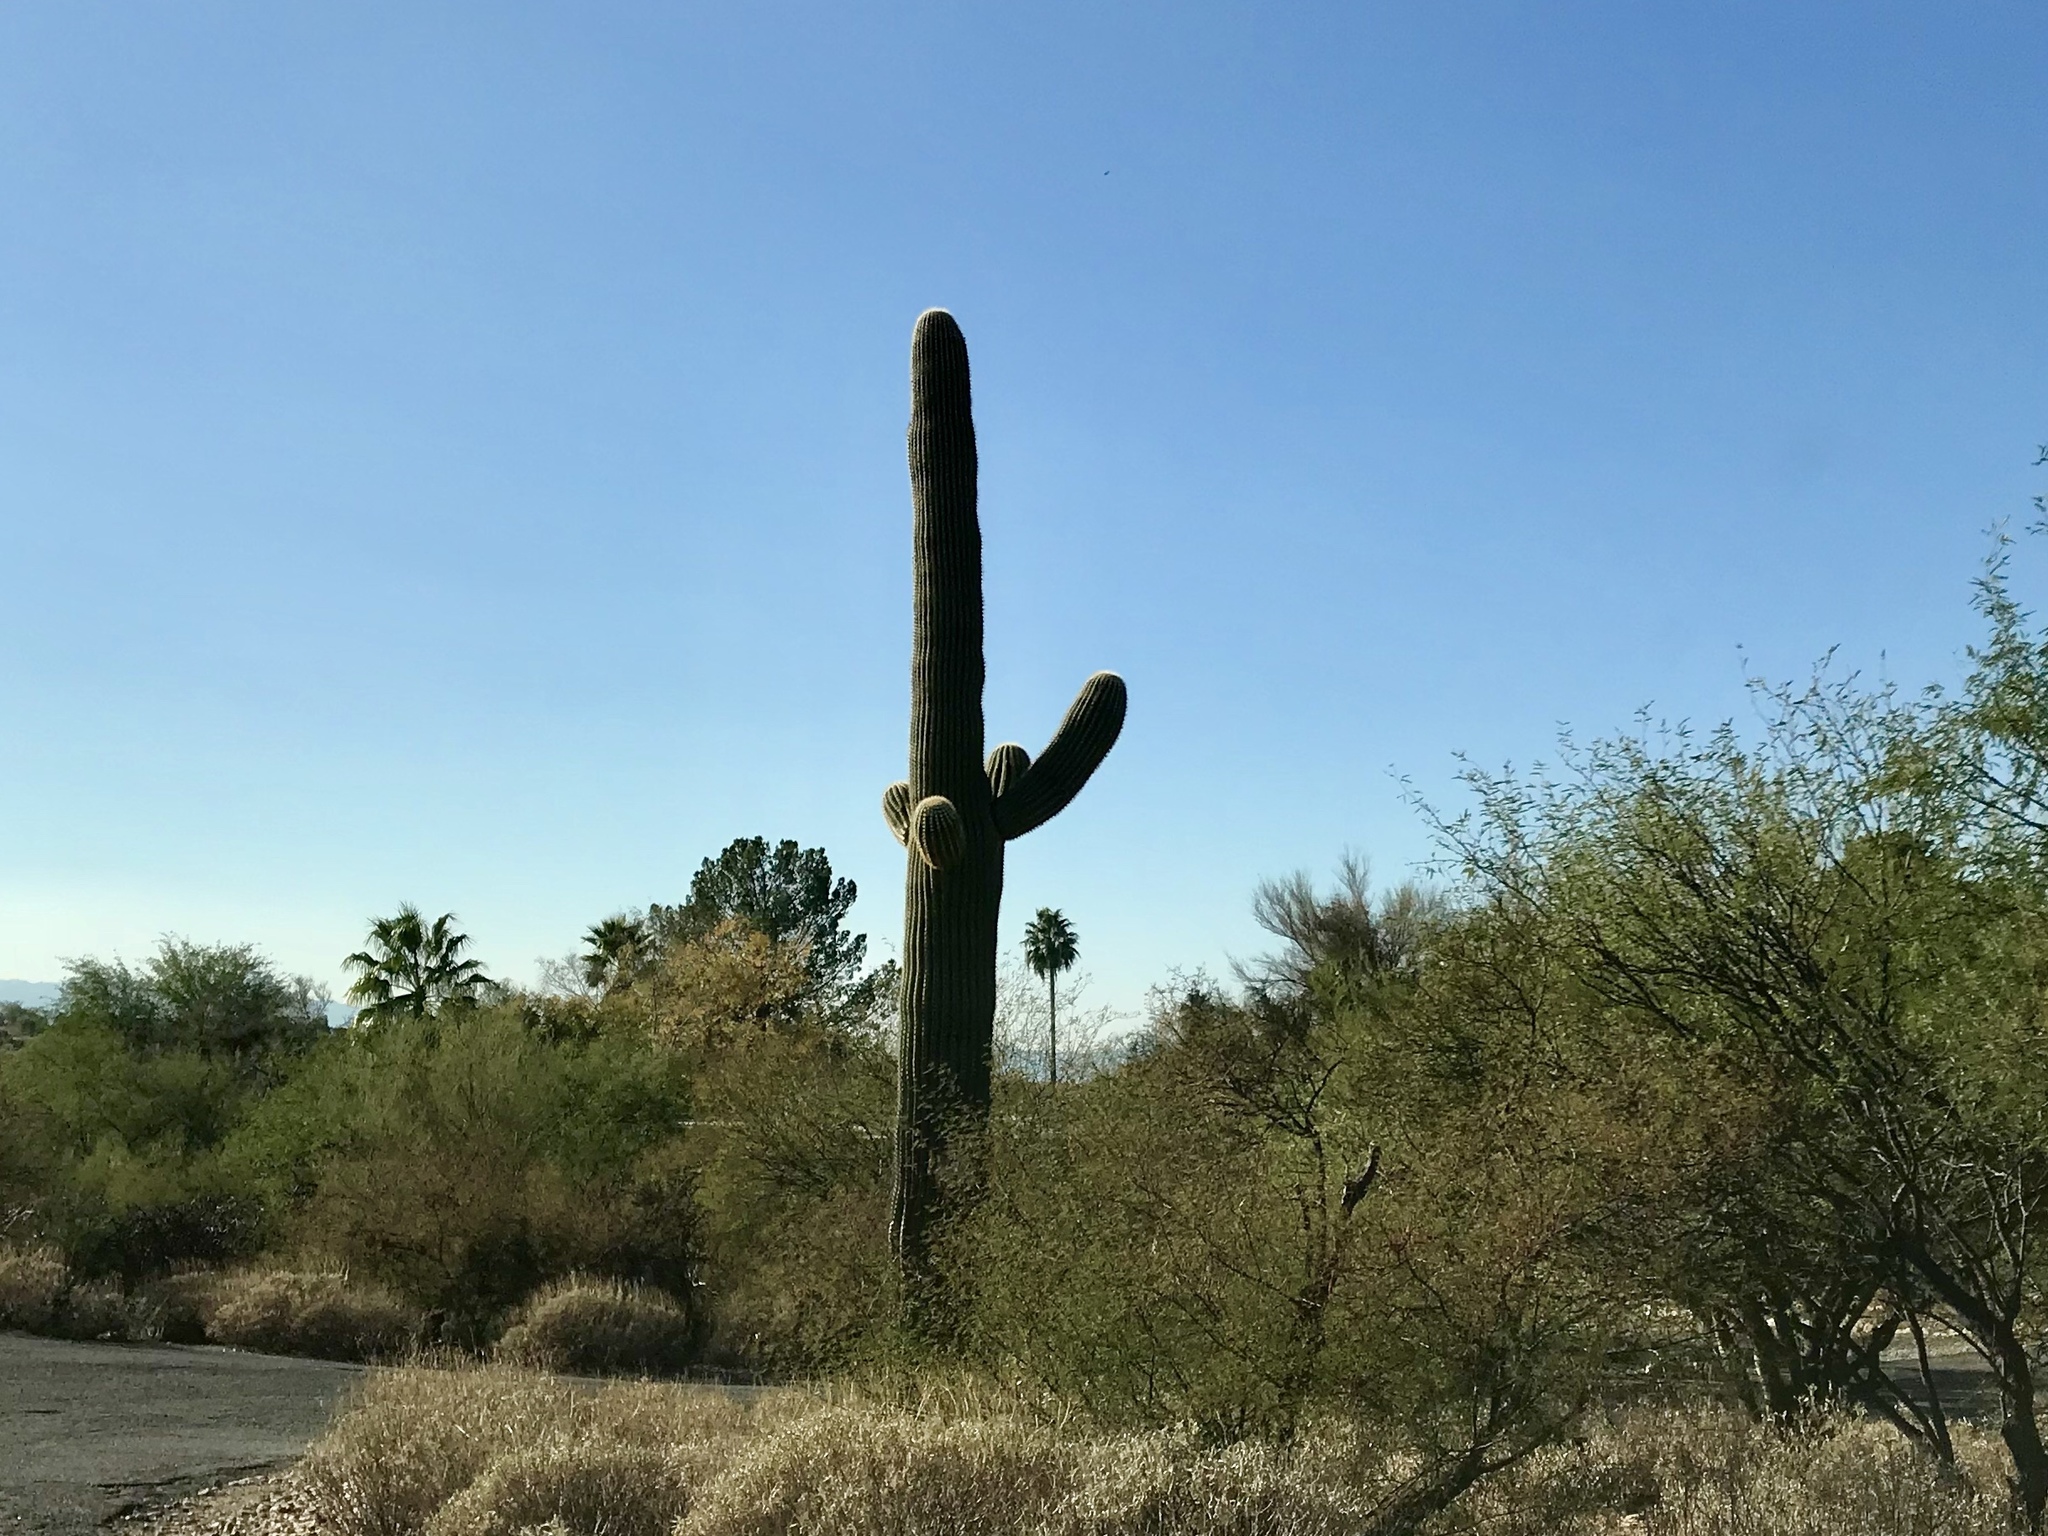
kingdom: Plantae
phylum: Tracheophyta
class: Magnoliopsida
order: Caryophyllales
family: Cactaceae
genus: Carnegiea
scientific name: Carnegiea gigantea
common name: Saguaro
